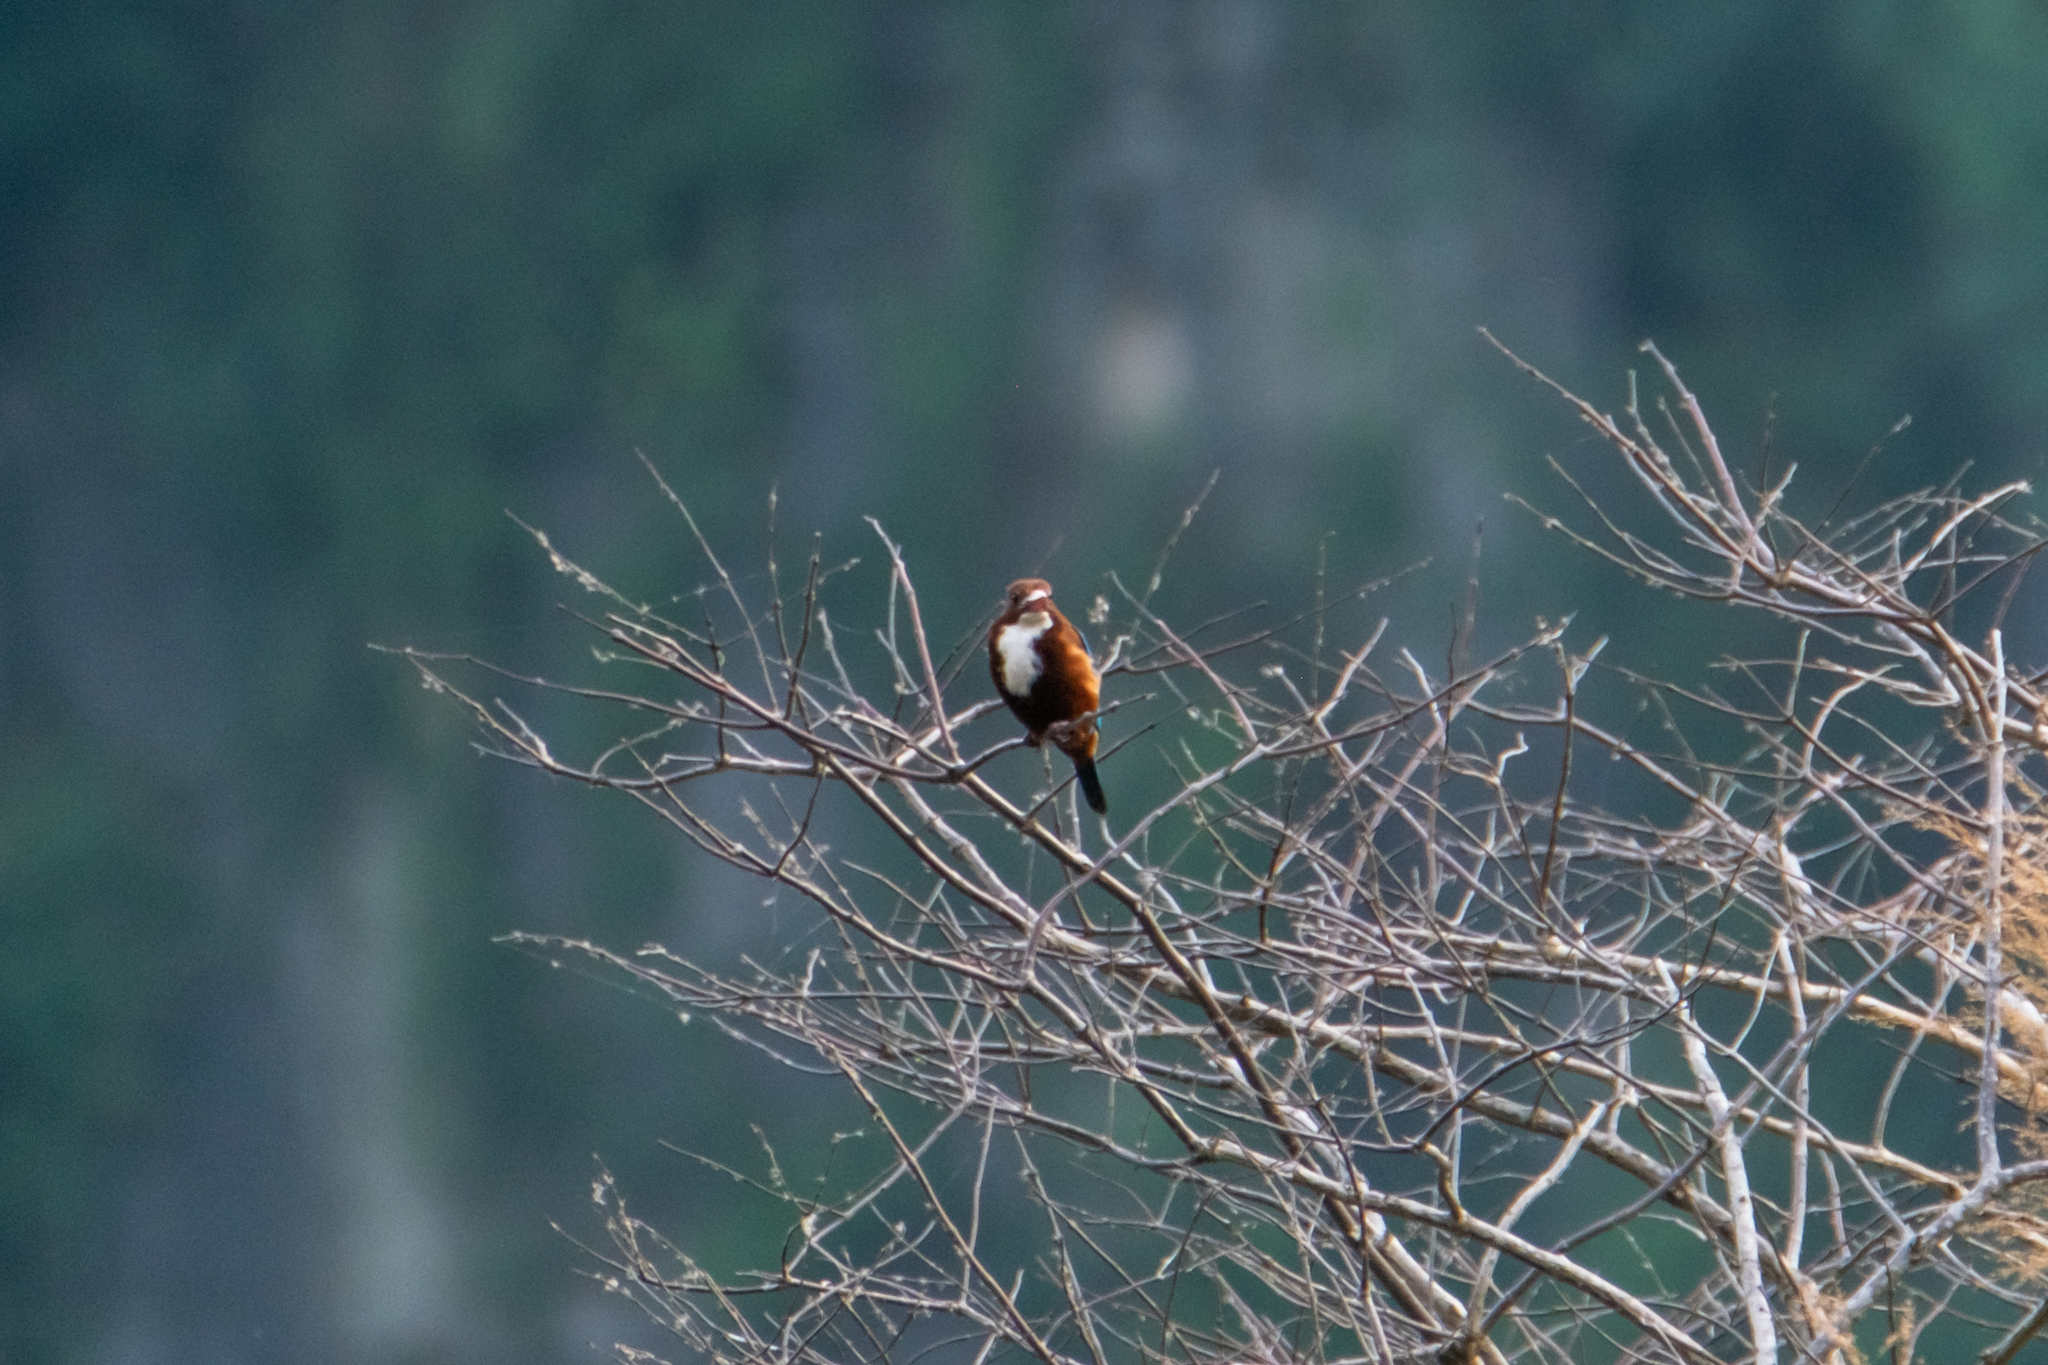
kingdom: Animalia
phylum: Chordata
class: Aves
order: Coraciiformes
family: Alcedinidae
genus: Halcyon
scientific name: Halcyon smyrnensis
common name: White-throated kingfisher
